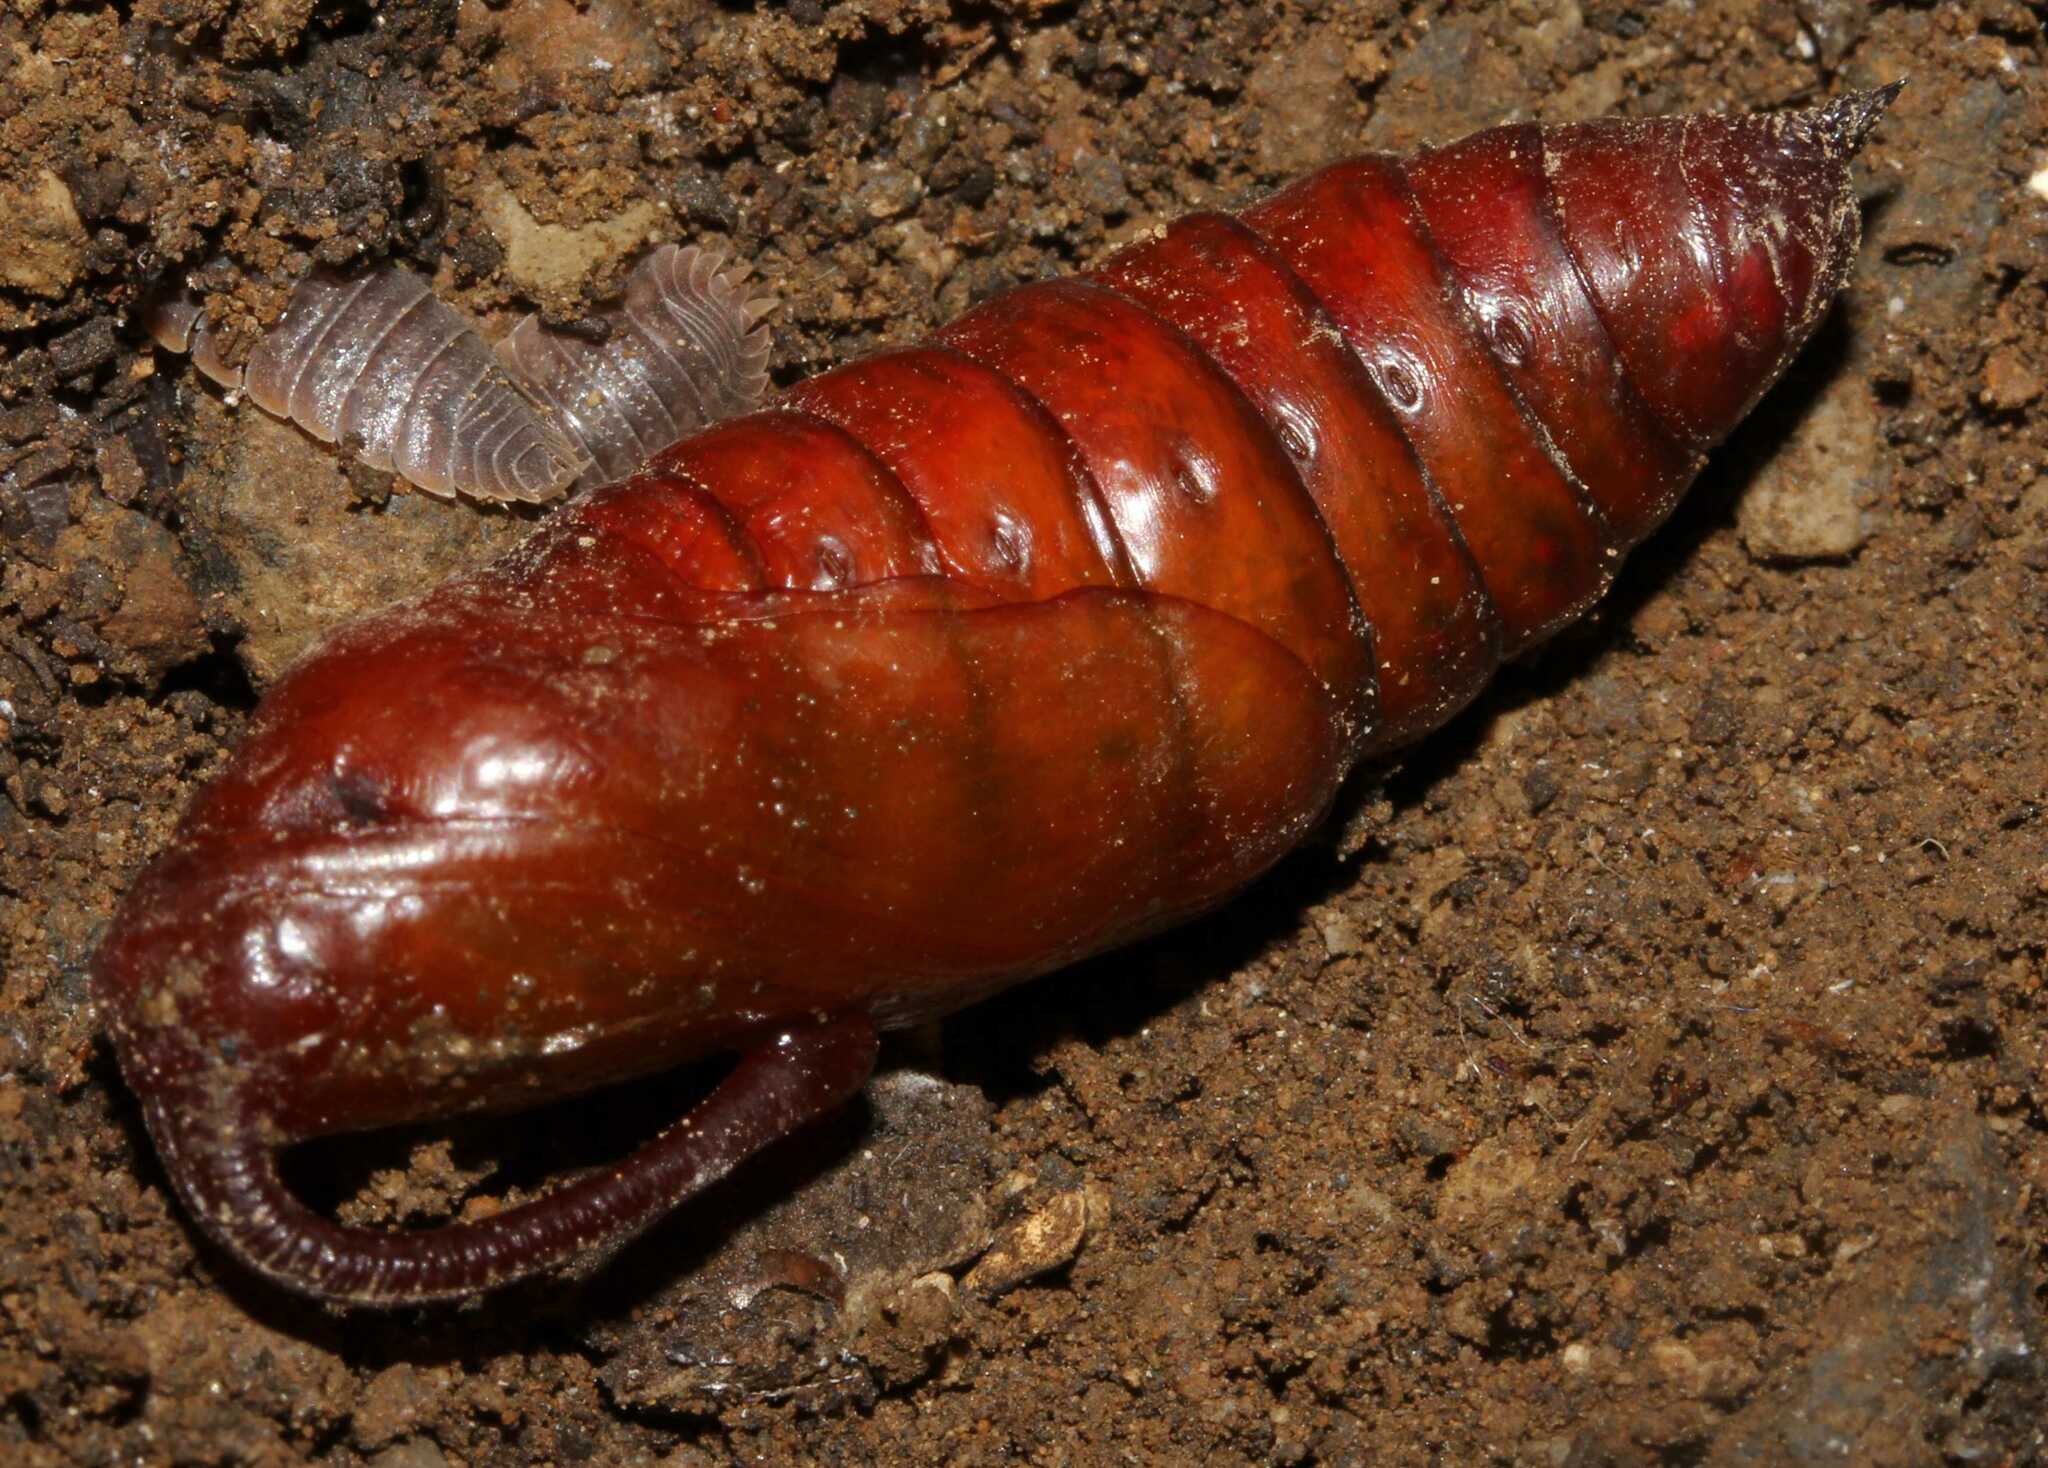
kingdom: Animalia
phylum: Arthropoda
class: Insecta
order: Lepidoptera
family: Sphingidae
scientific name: Sphingidae
